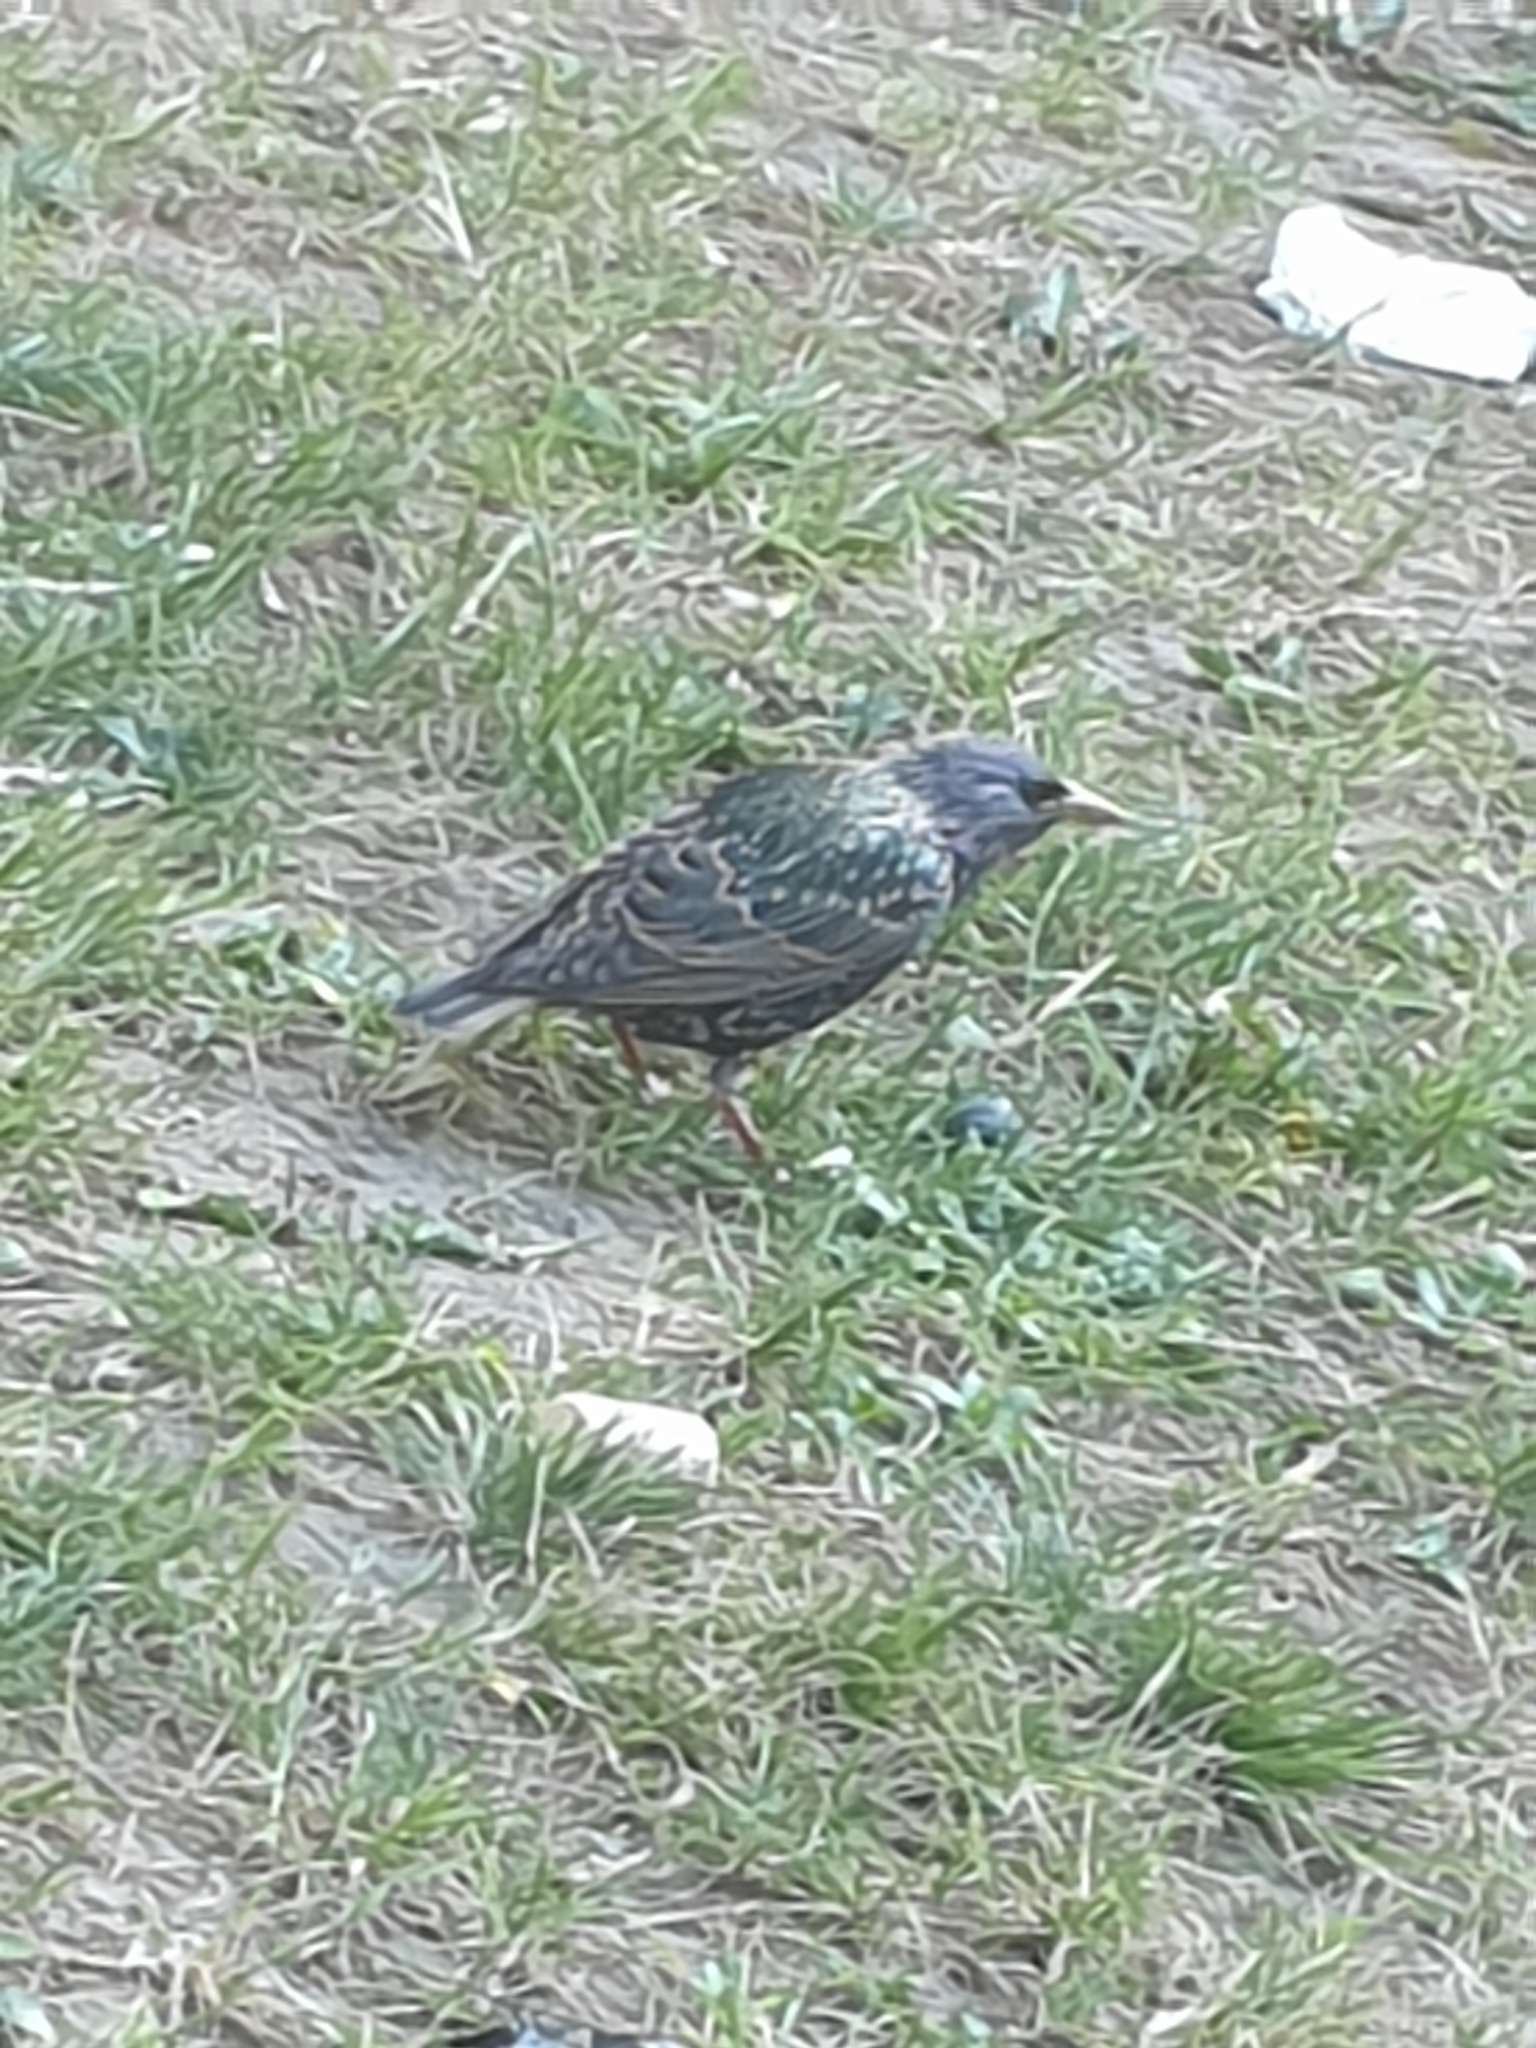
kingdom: Animalia
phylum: Chordata
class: Aves
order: Passeriformes
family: Sturnidae
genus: Sturnus
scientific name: Sturnus vulgaris
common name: Common starling
